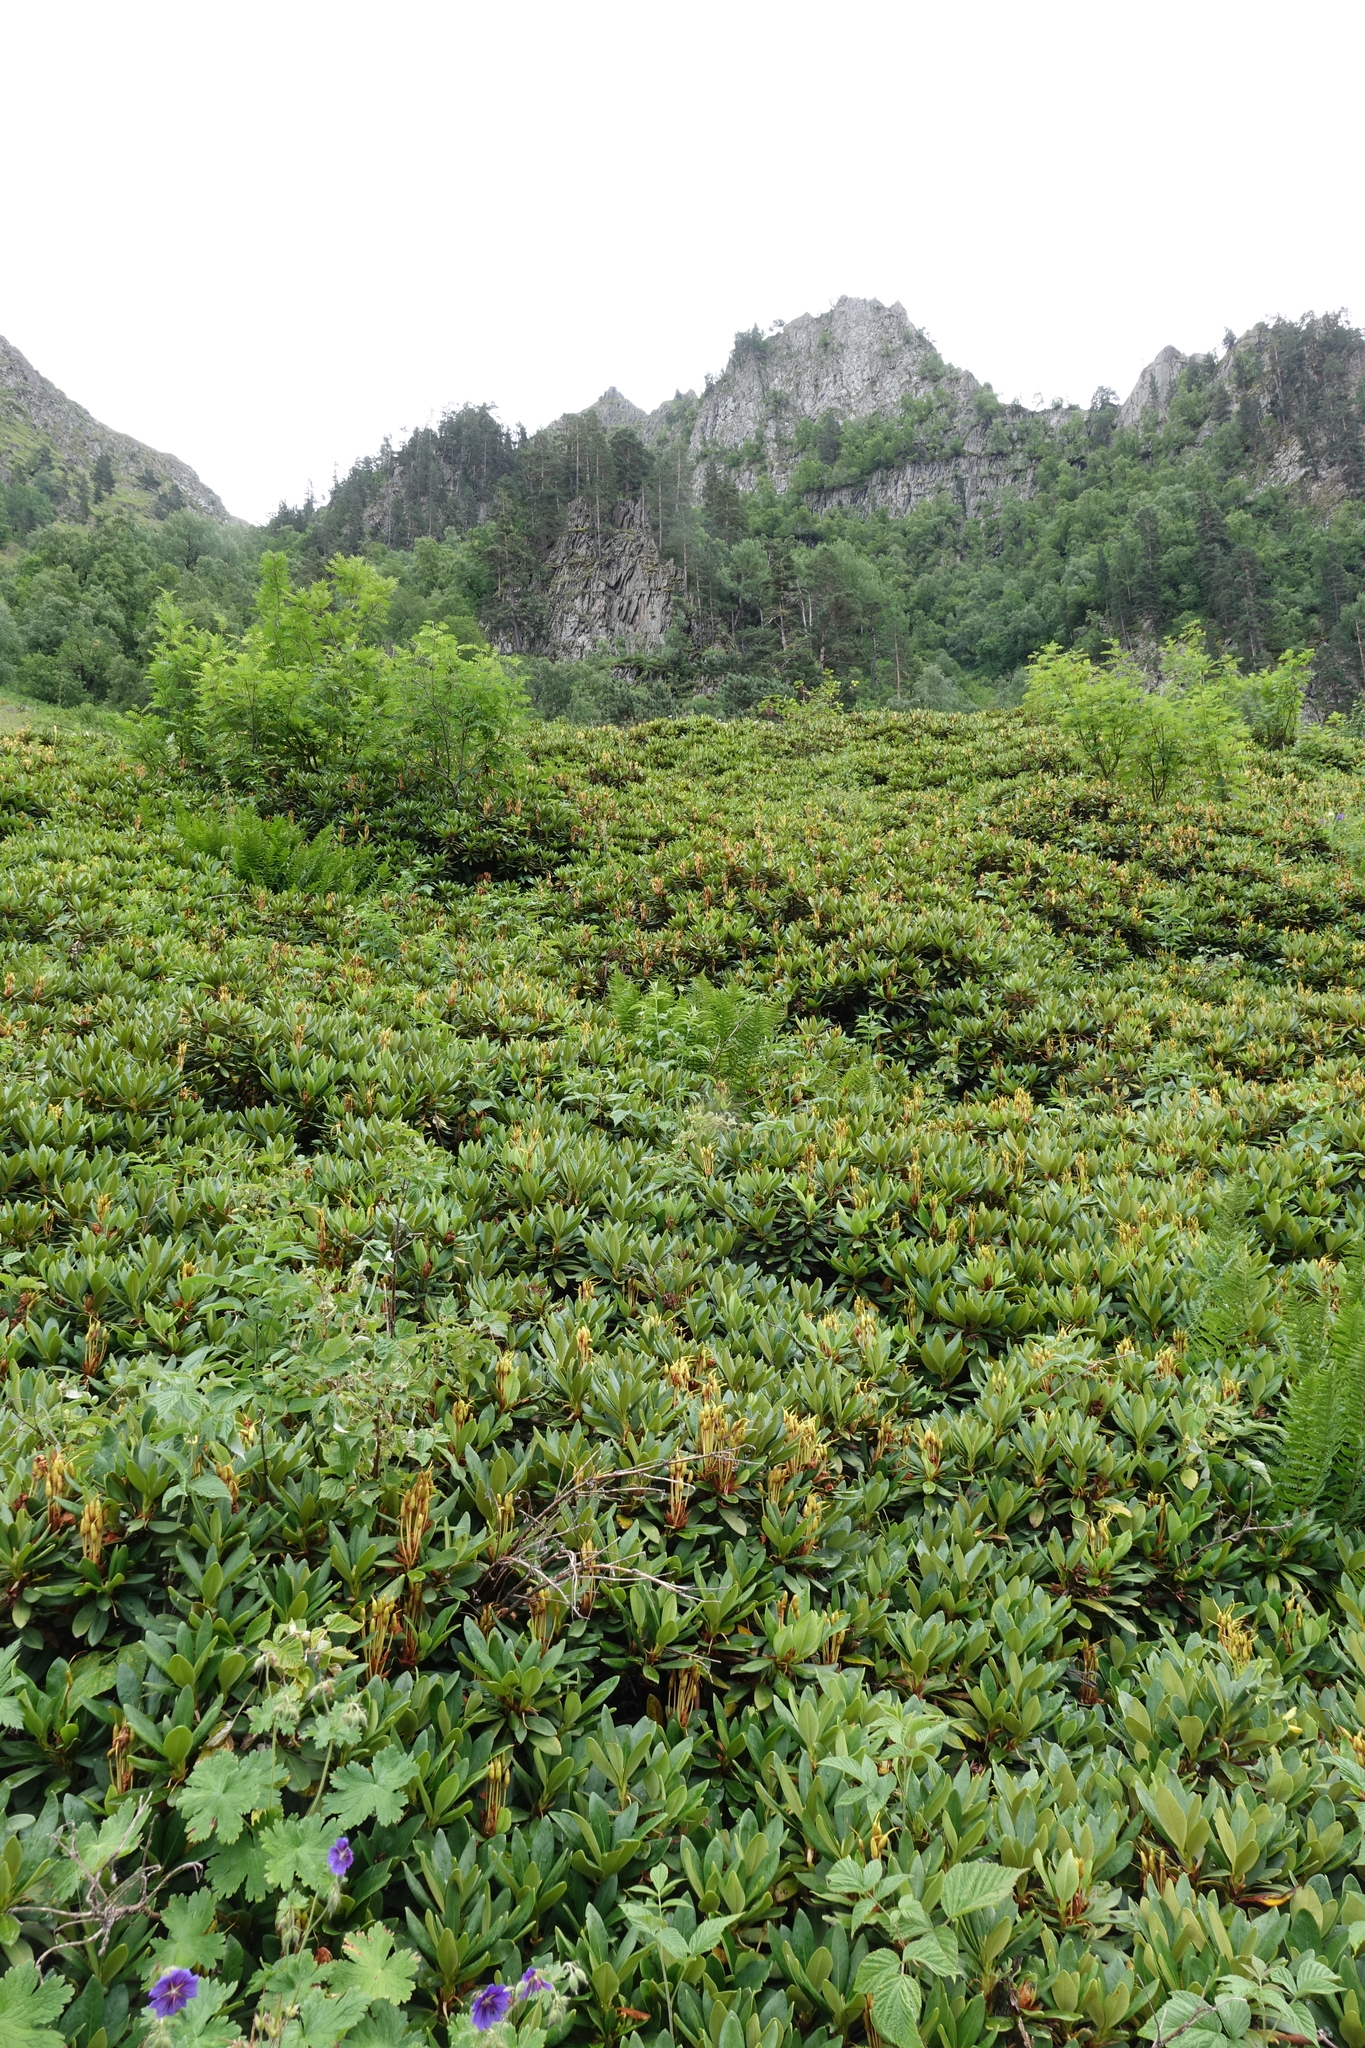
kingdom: Plantae
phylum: Tracheophyta
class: Magnoliopsida
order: Ericales
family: Ericaceae
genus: Rhododendron
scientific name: Rhododendron caucasicum
